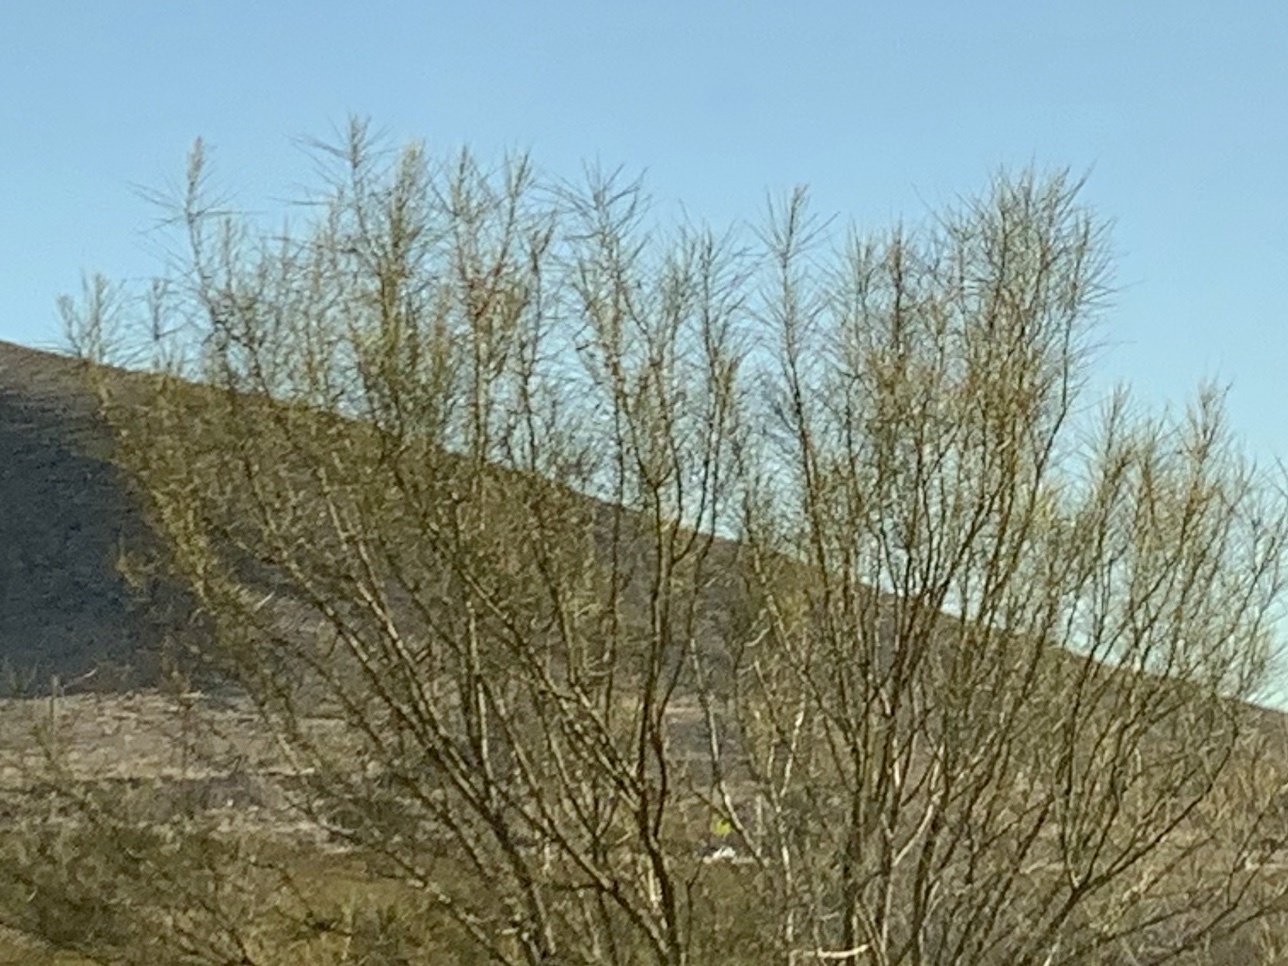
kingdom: Plantae
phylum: Tracheophyta
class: Magnoliopsida
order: Fabales
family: Fabaceae
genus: Parkinsonia
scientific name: Parkinsonia aculeata
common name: Jerusalem thorn
